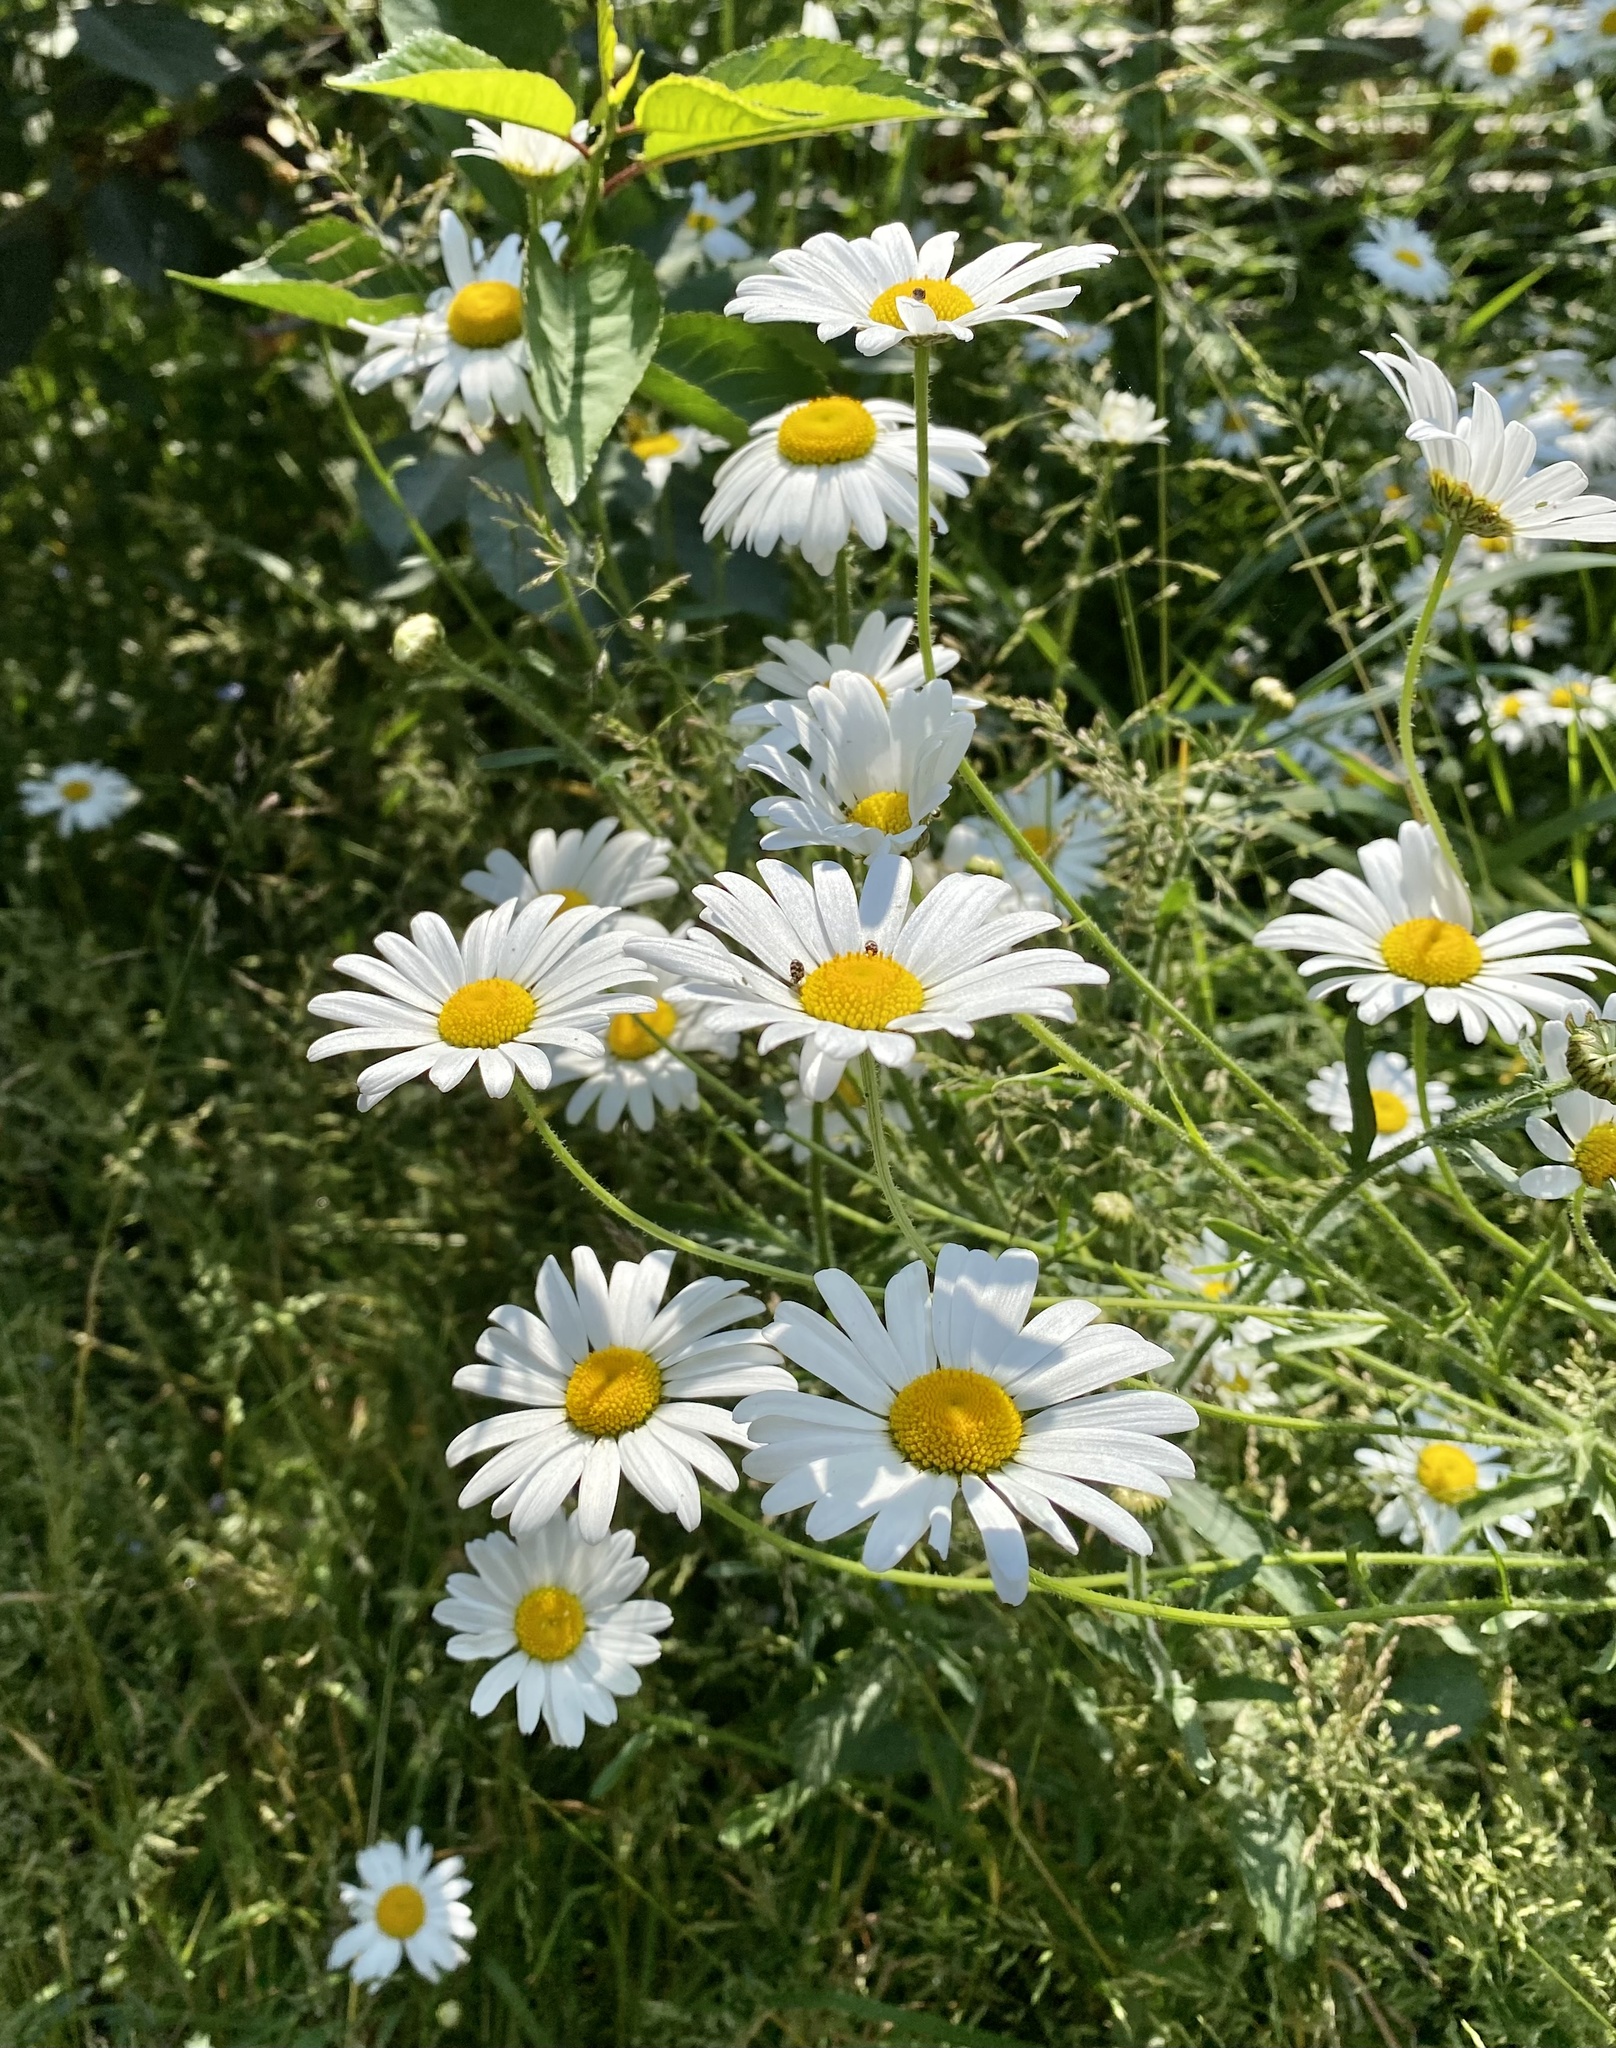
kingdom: Plantae
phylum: Tracheophyta
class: Magnoliopsida
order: Asterales
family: Asteraceae
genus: Leucanthemum
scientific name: Leucanthemum vulgare
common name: Oxeye daisy
